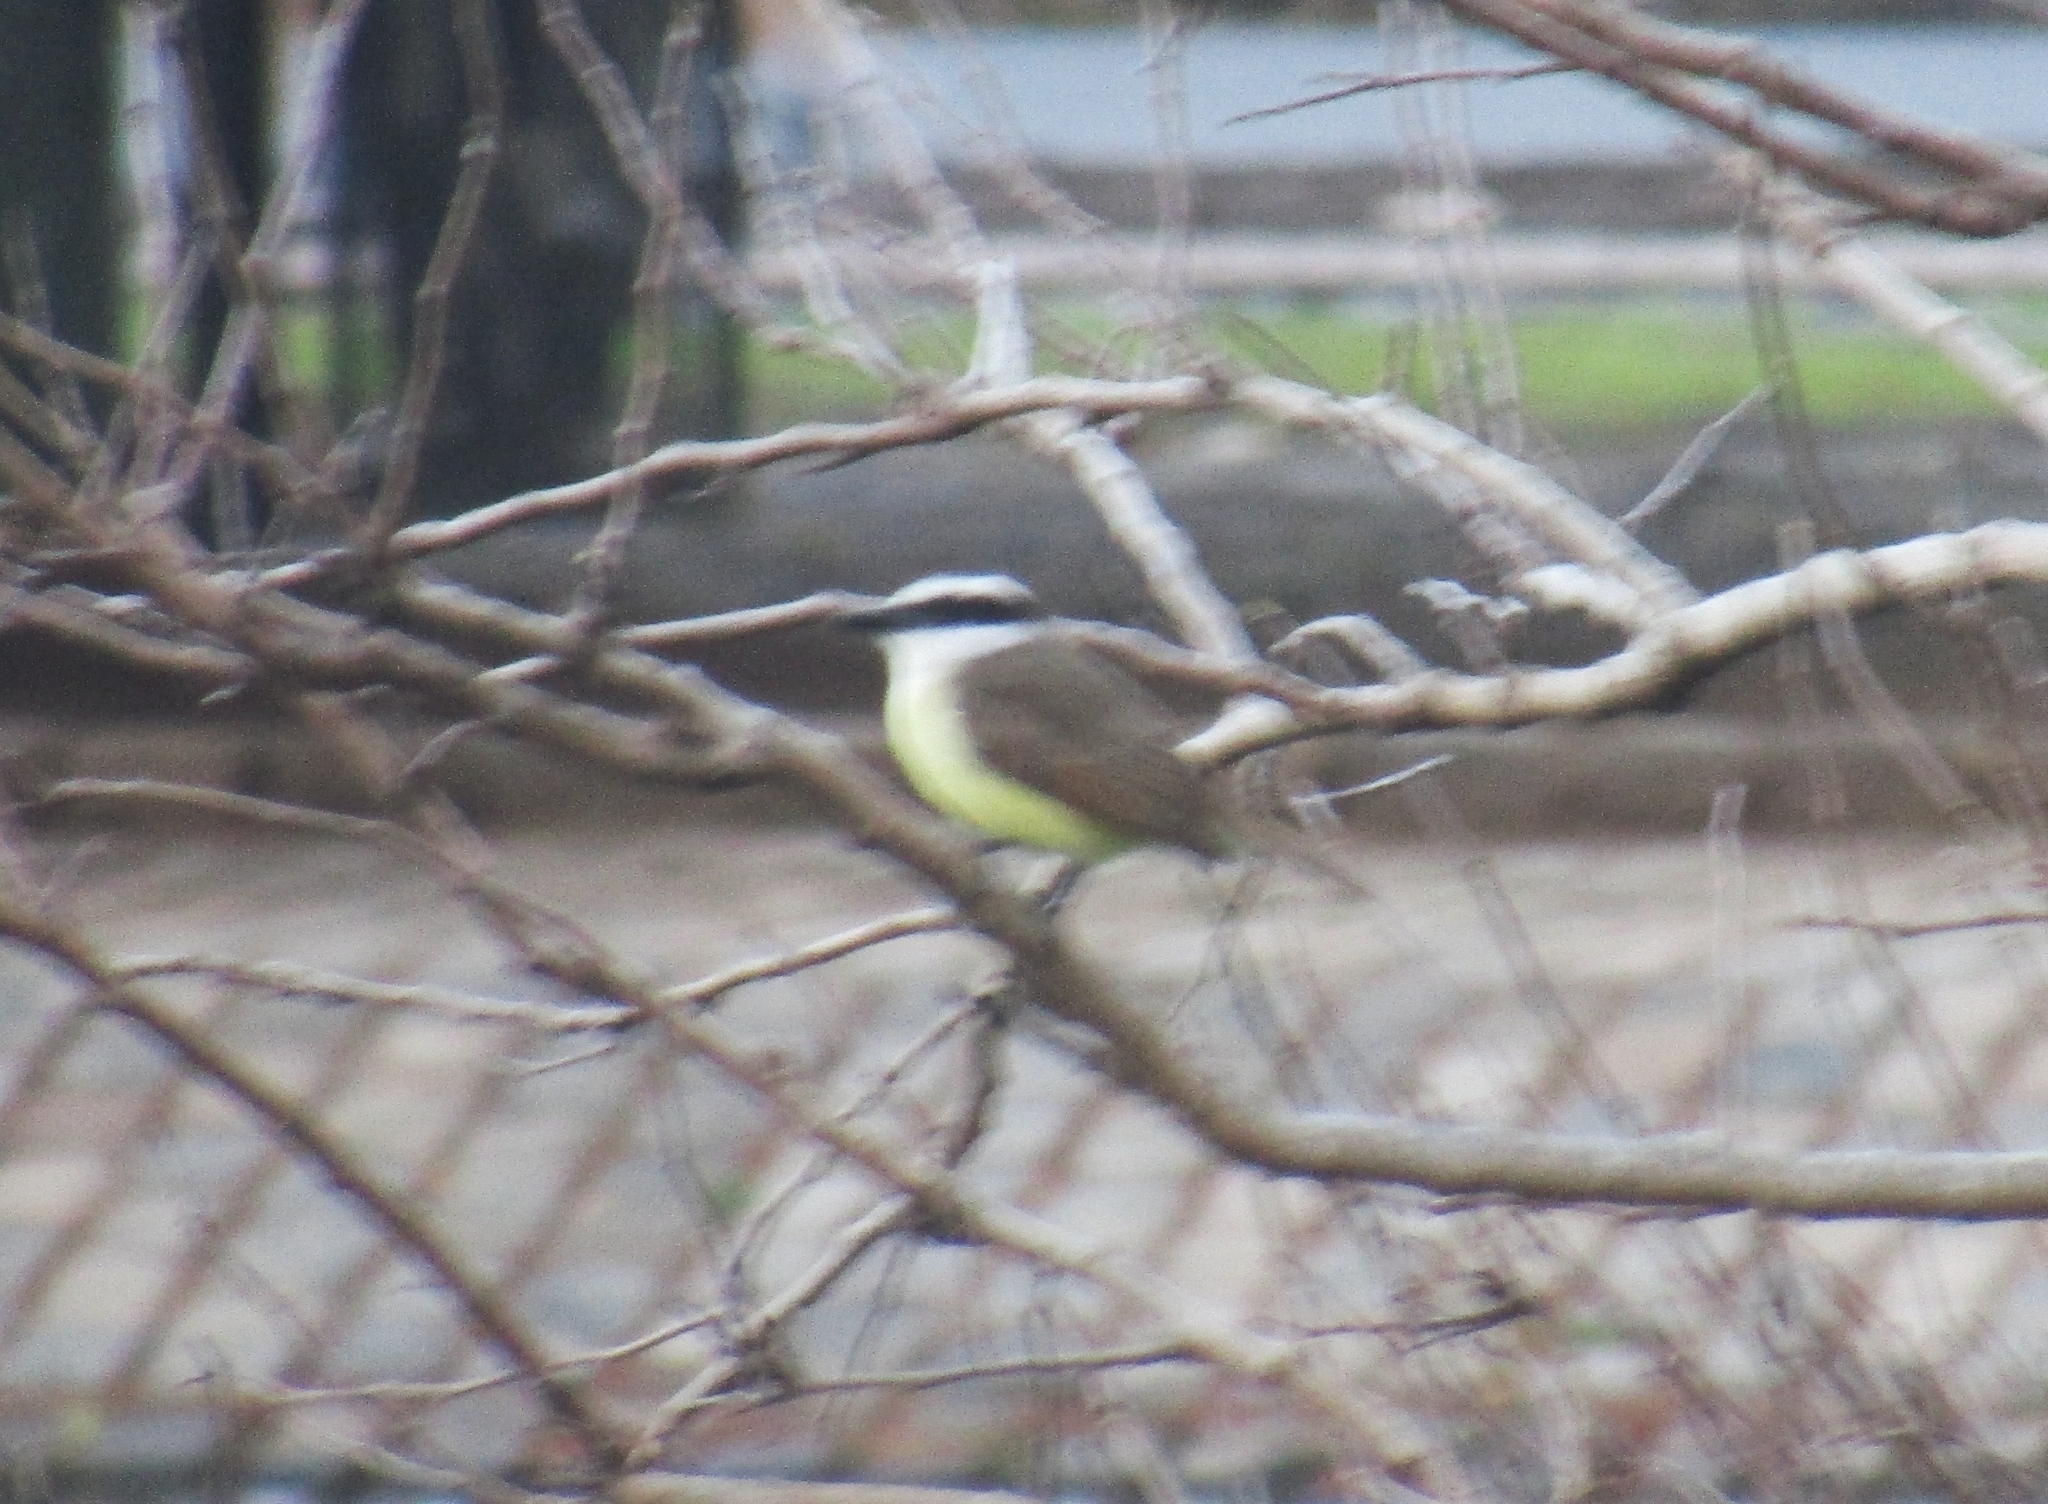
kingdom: Animalia
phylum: Chordata
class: Aves
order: Passeriformes
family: Tyrannidae
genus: Pitangus
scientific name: Pitangus sulphuratus
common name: Great kiskadee
